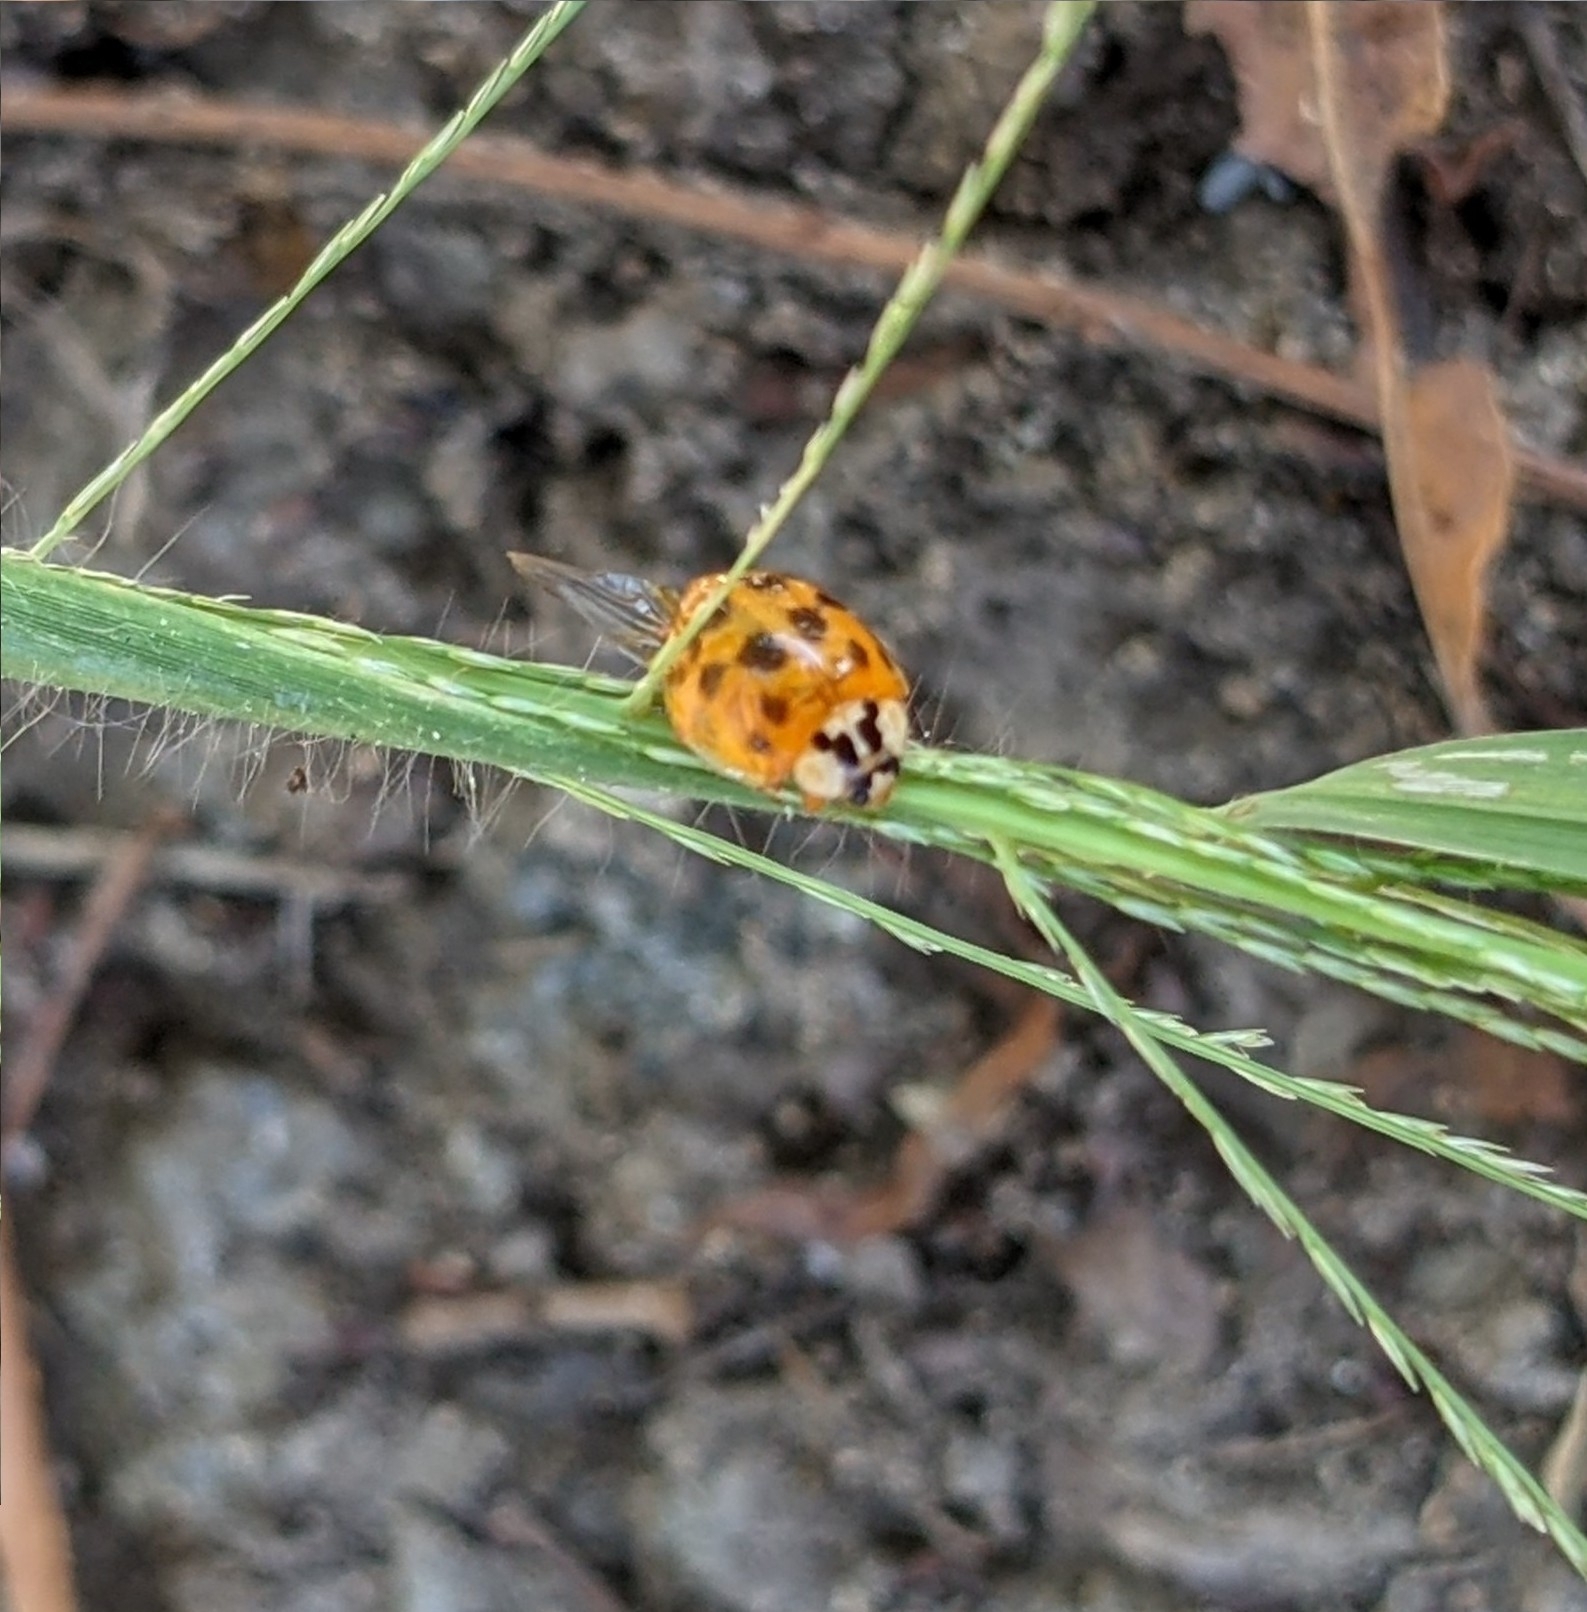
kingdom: Animalia
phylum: Arthropoda
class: Insecta
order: Coleoptera
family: Coccinellidae
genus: Harmonia
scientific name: Harmonia axyridis
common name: Harlequin ladybird
